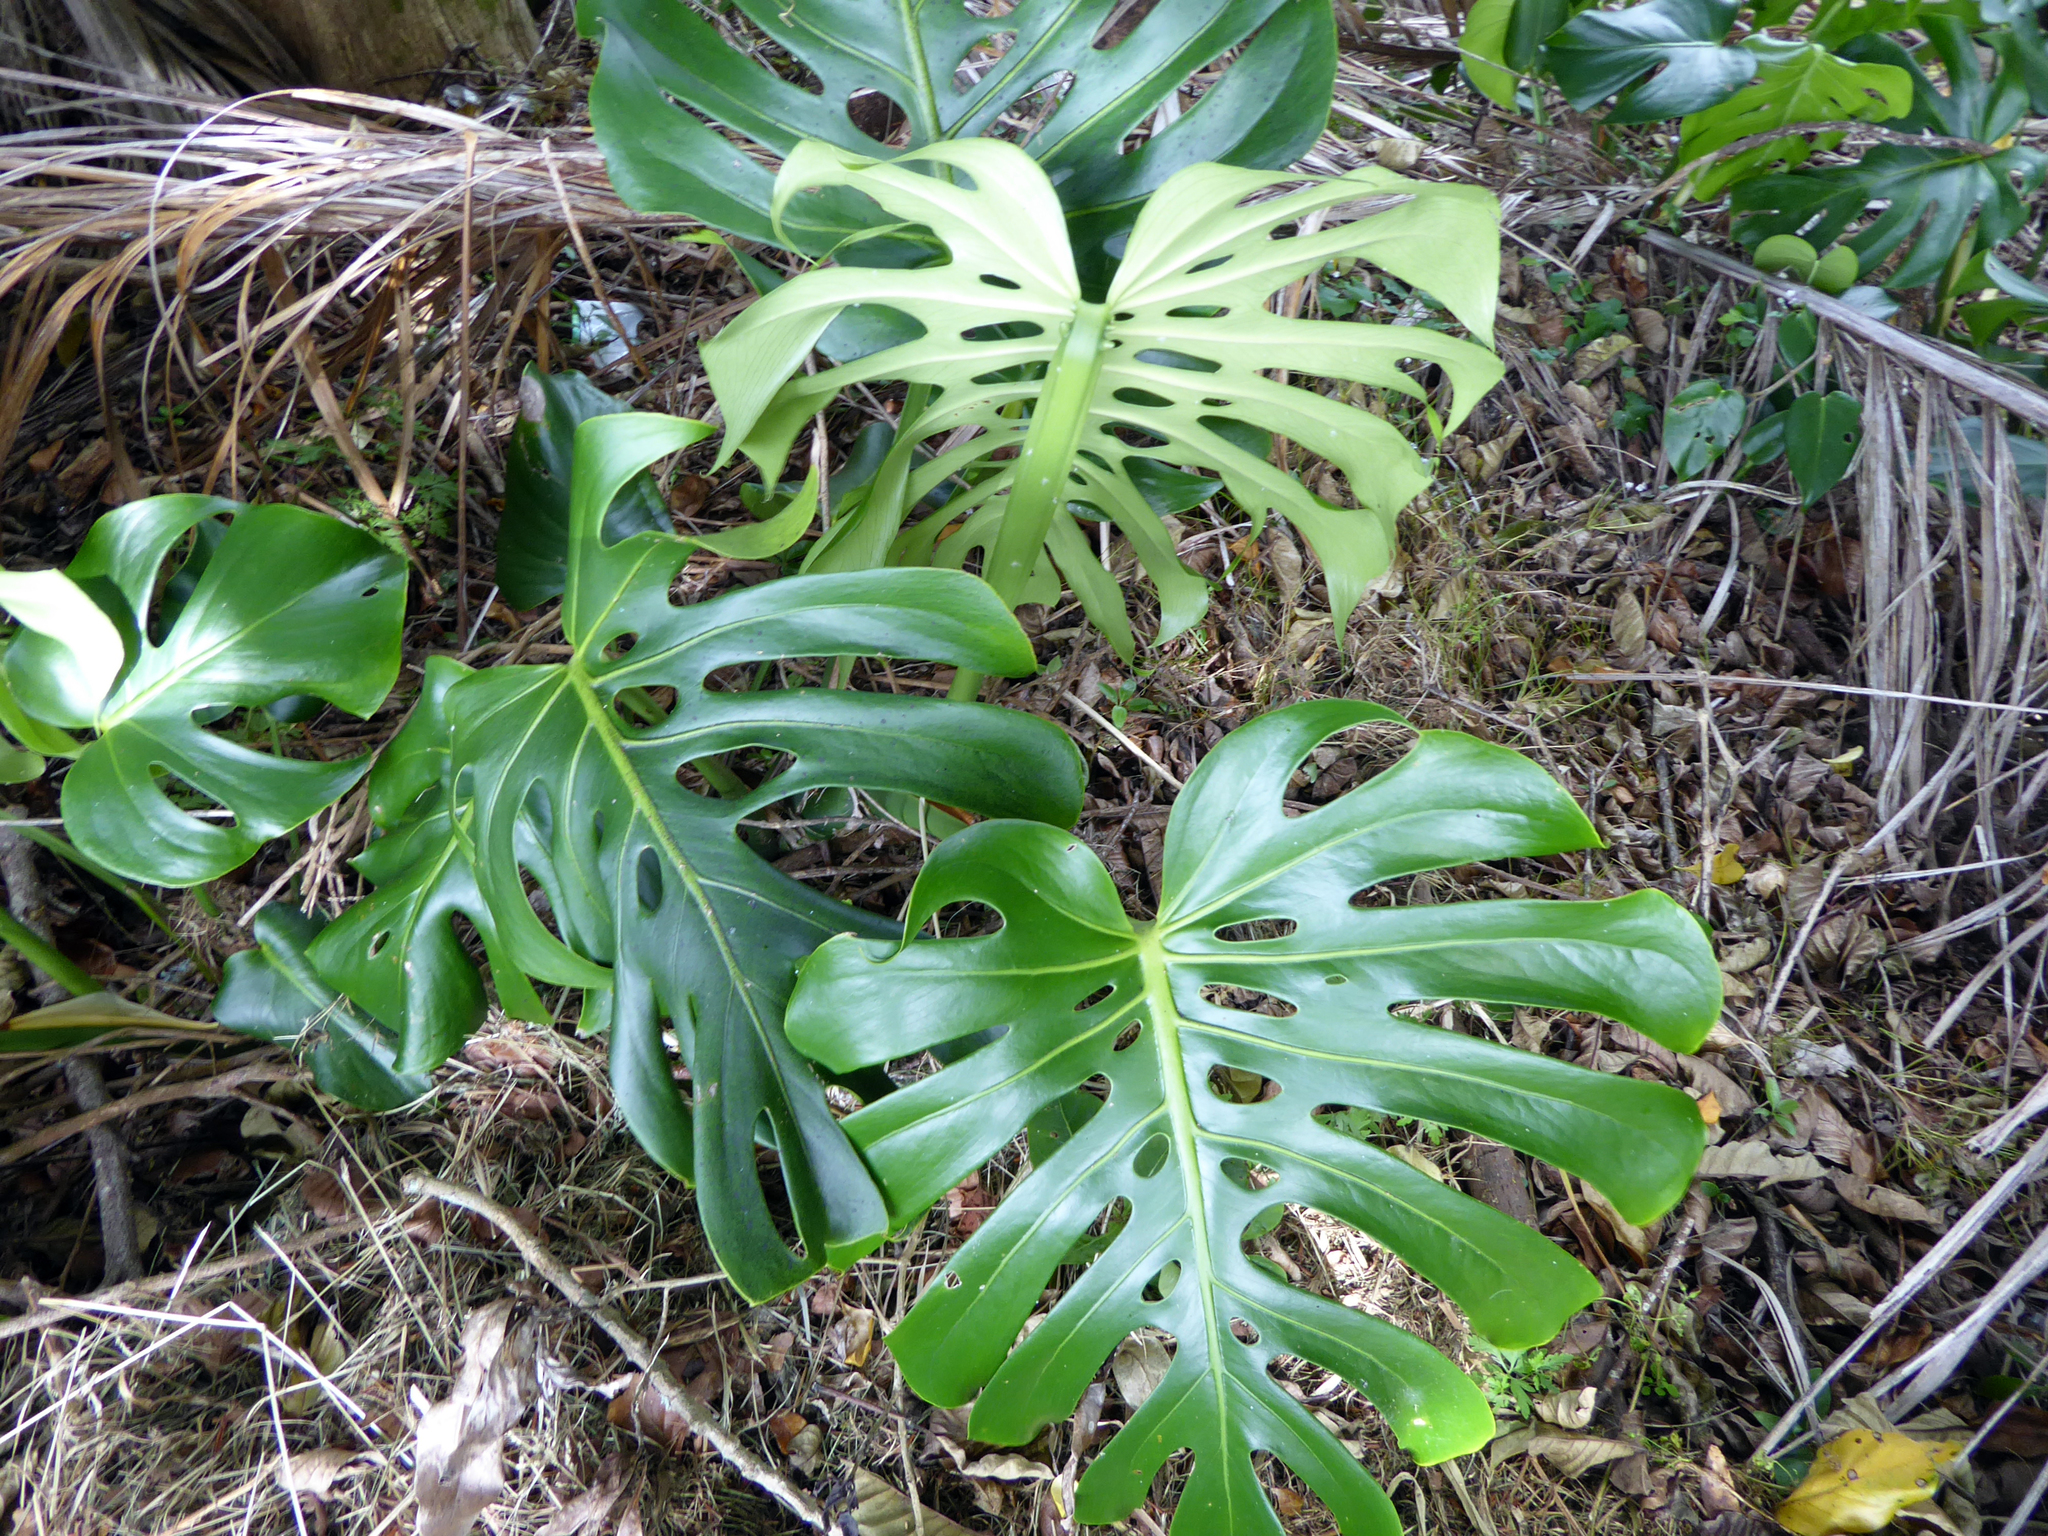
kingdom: Plantae
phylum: Tracheophyta
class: Liliopsida
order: Alismatales
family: Araceae
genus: Monstera
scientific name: Monstera deliciosa
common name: Cut-leaf-philodendron
